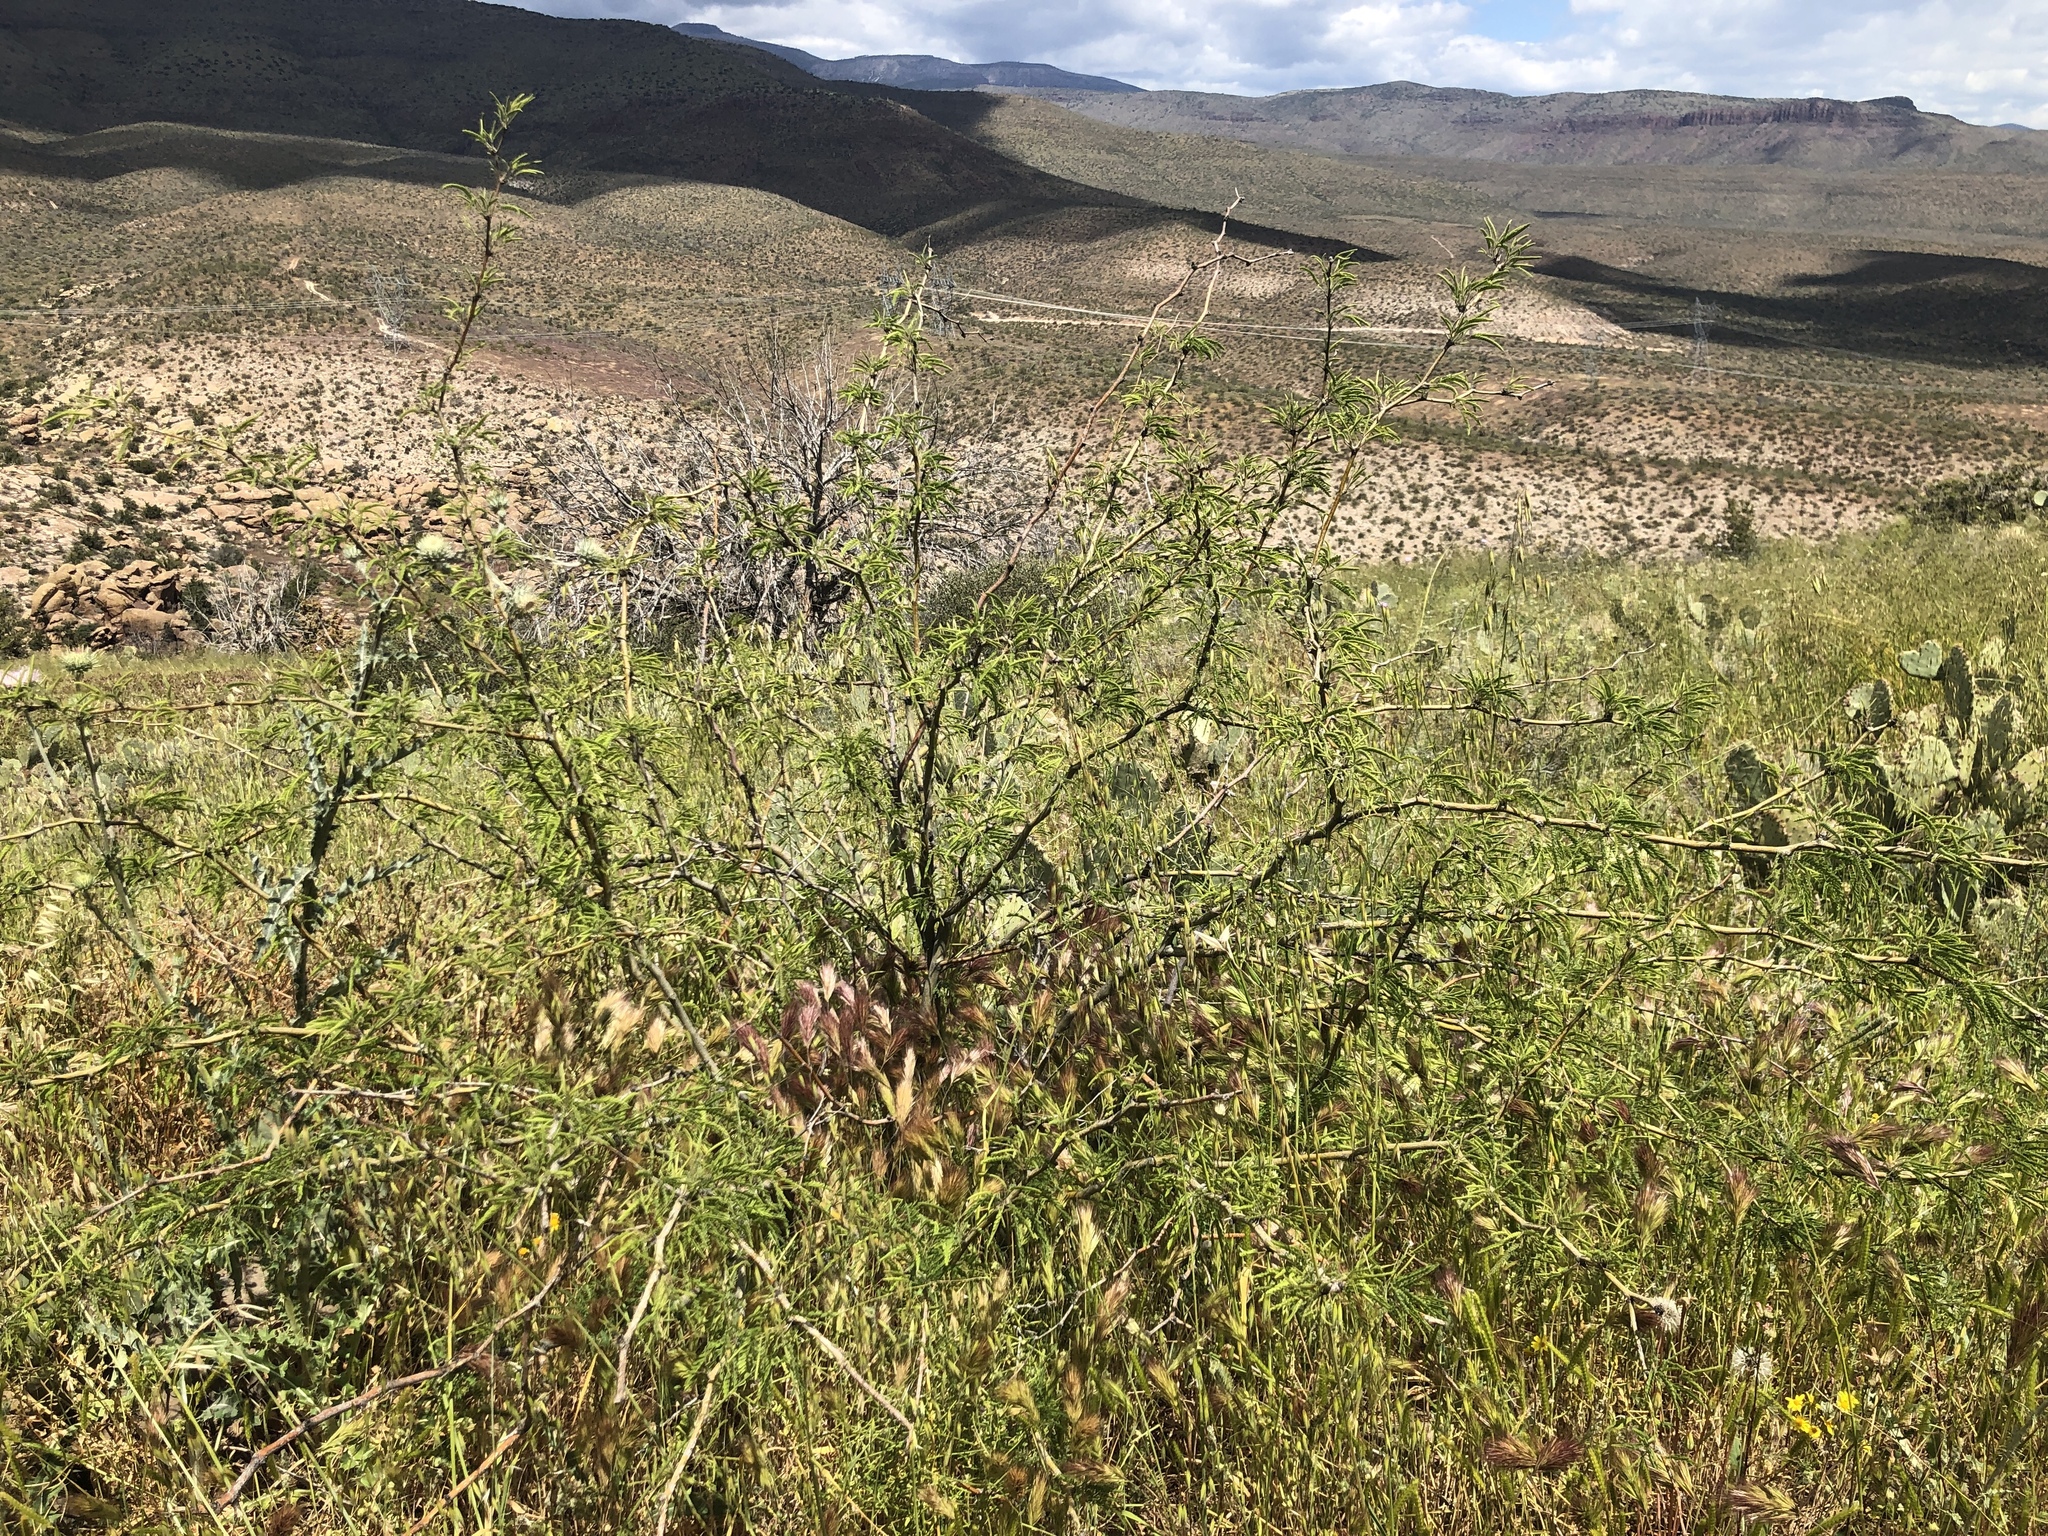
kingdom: Plantae
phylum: Tracheophyta
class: Magnoliopsida
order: Fabales
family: Fabaceae
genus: Prosopis
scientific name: Prosopis velutina
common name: Velvet mesquite
